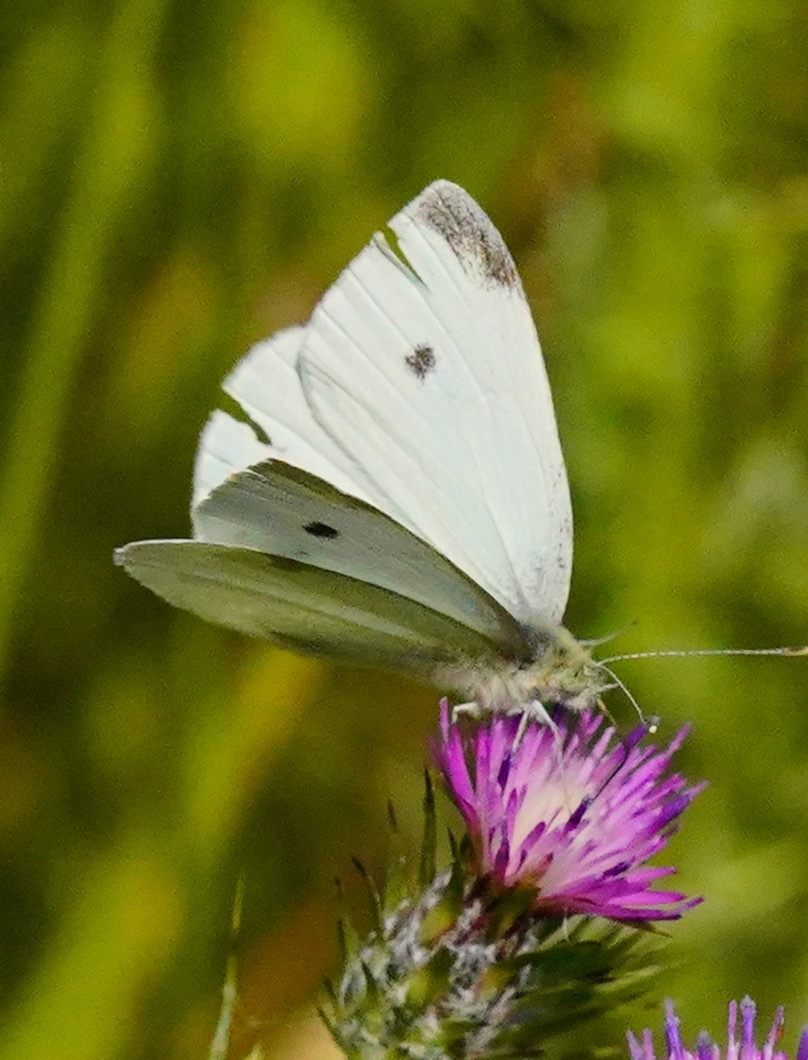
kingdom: Animalia
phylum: Arthropoda
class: Insecta
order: Lepidoptera
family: Pieridae
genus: Pieris
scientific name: Pieris rapae
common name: Small white
